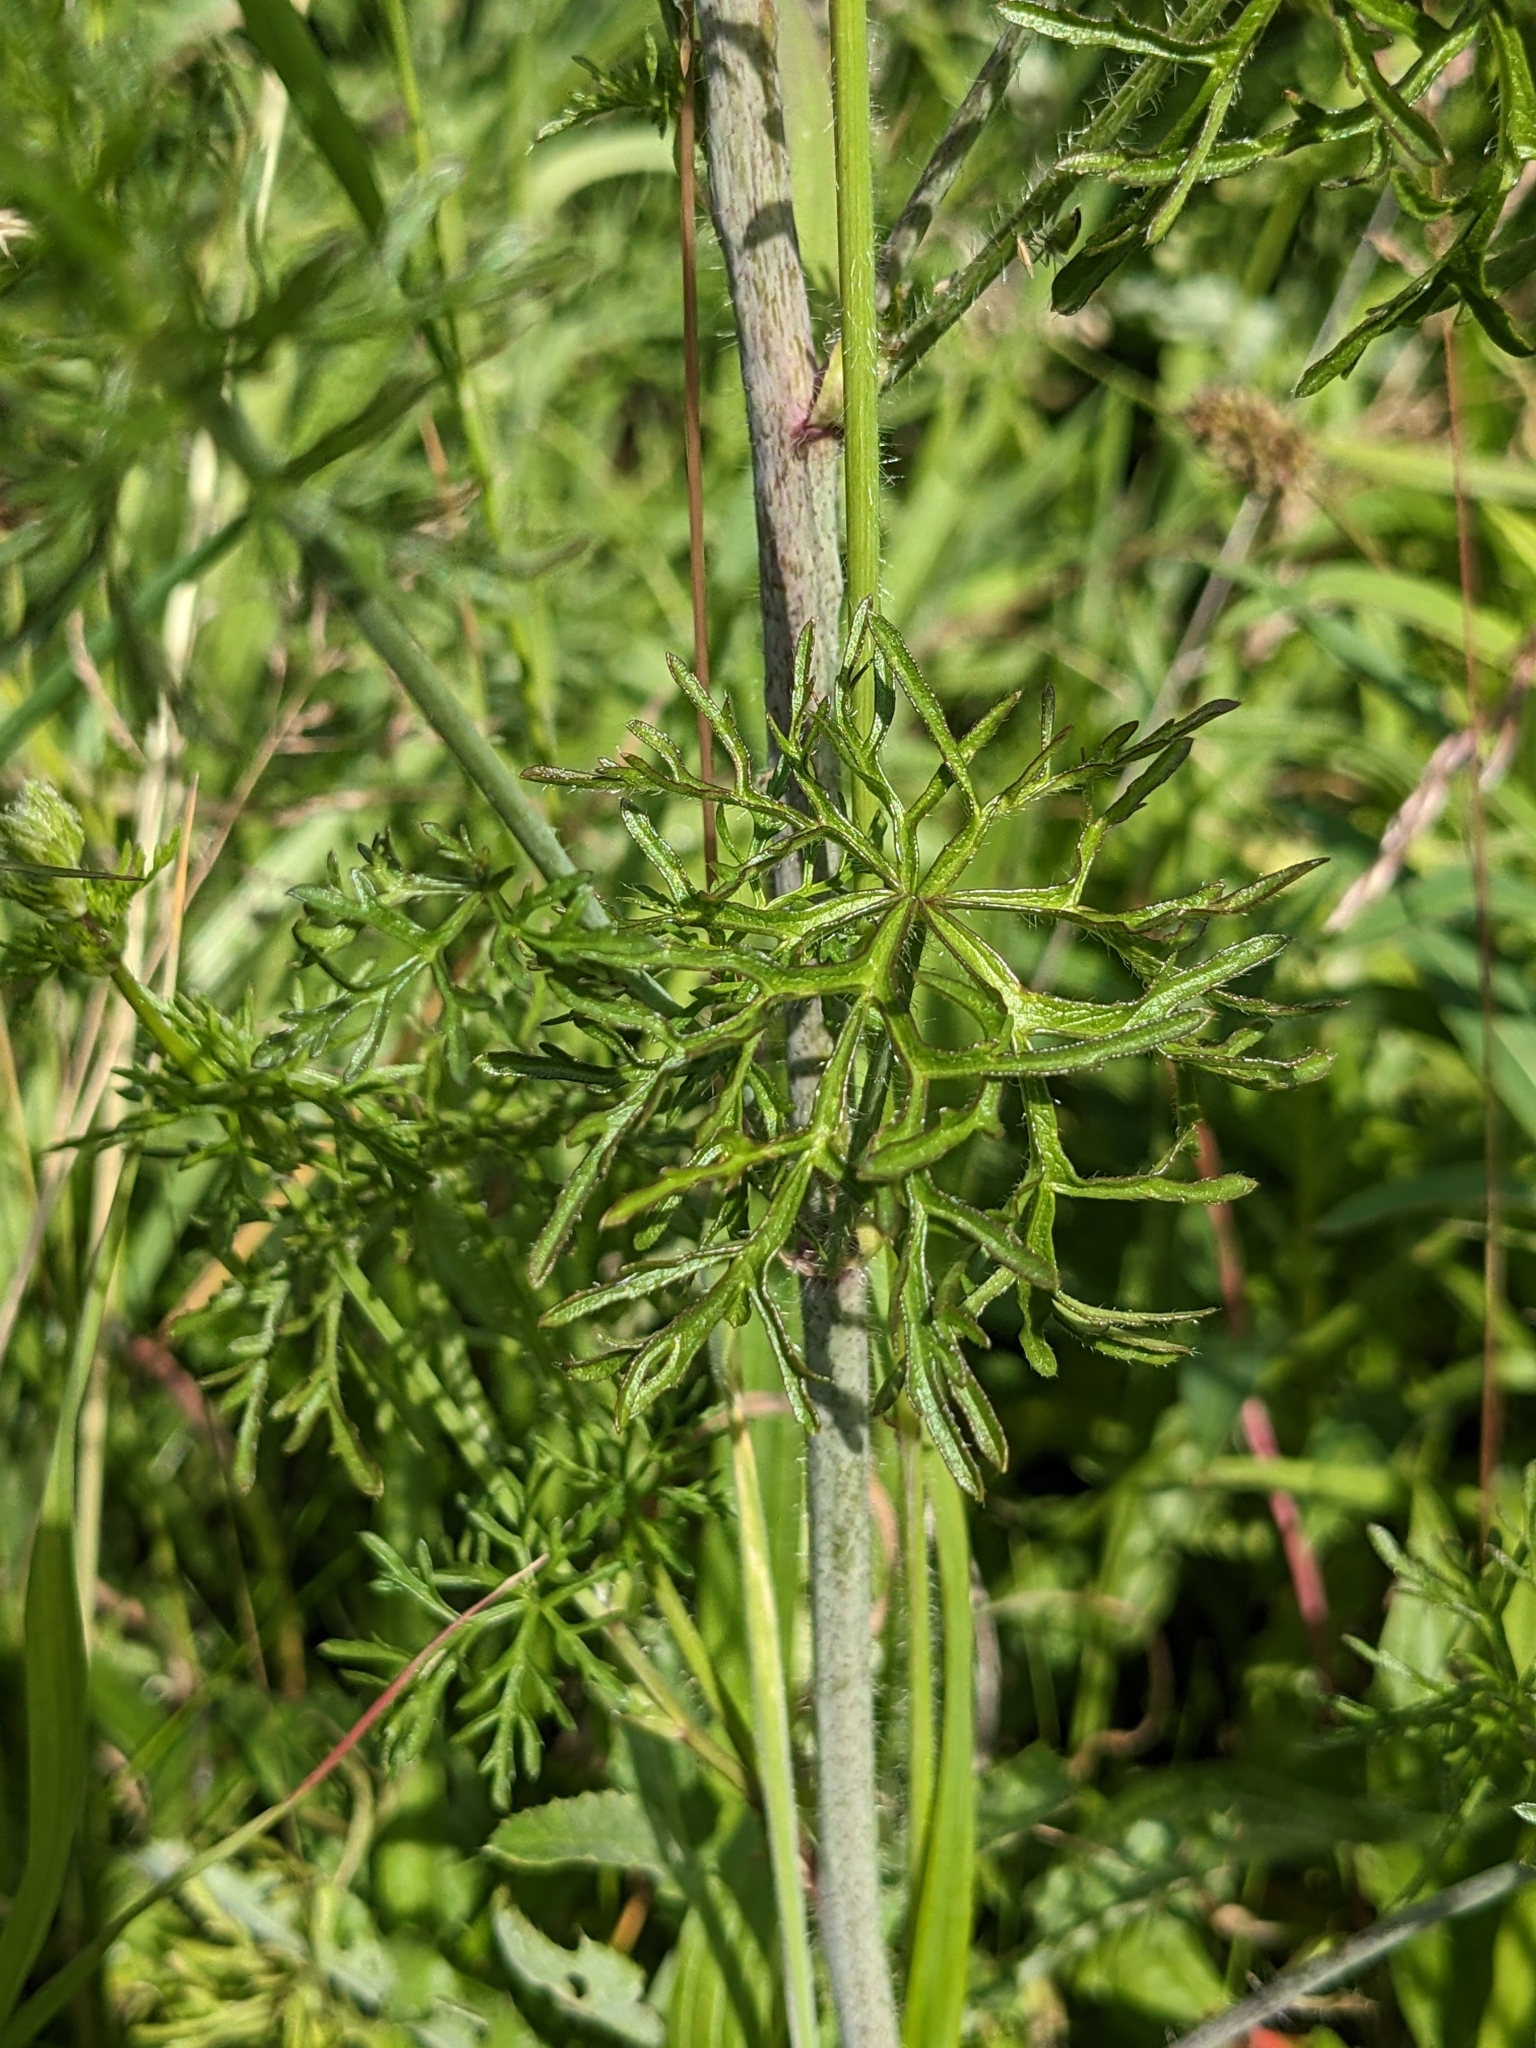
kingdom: Plantae
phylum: Tracheophyta
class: Magnoliopsida
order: Malvales
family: Malvaceae
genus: Malva
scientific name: Malva moschata
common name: Musk mallow
